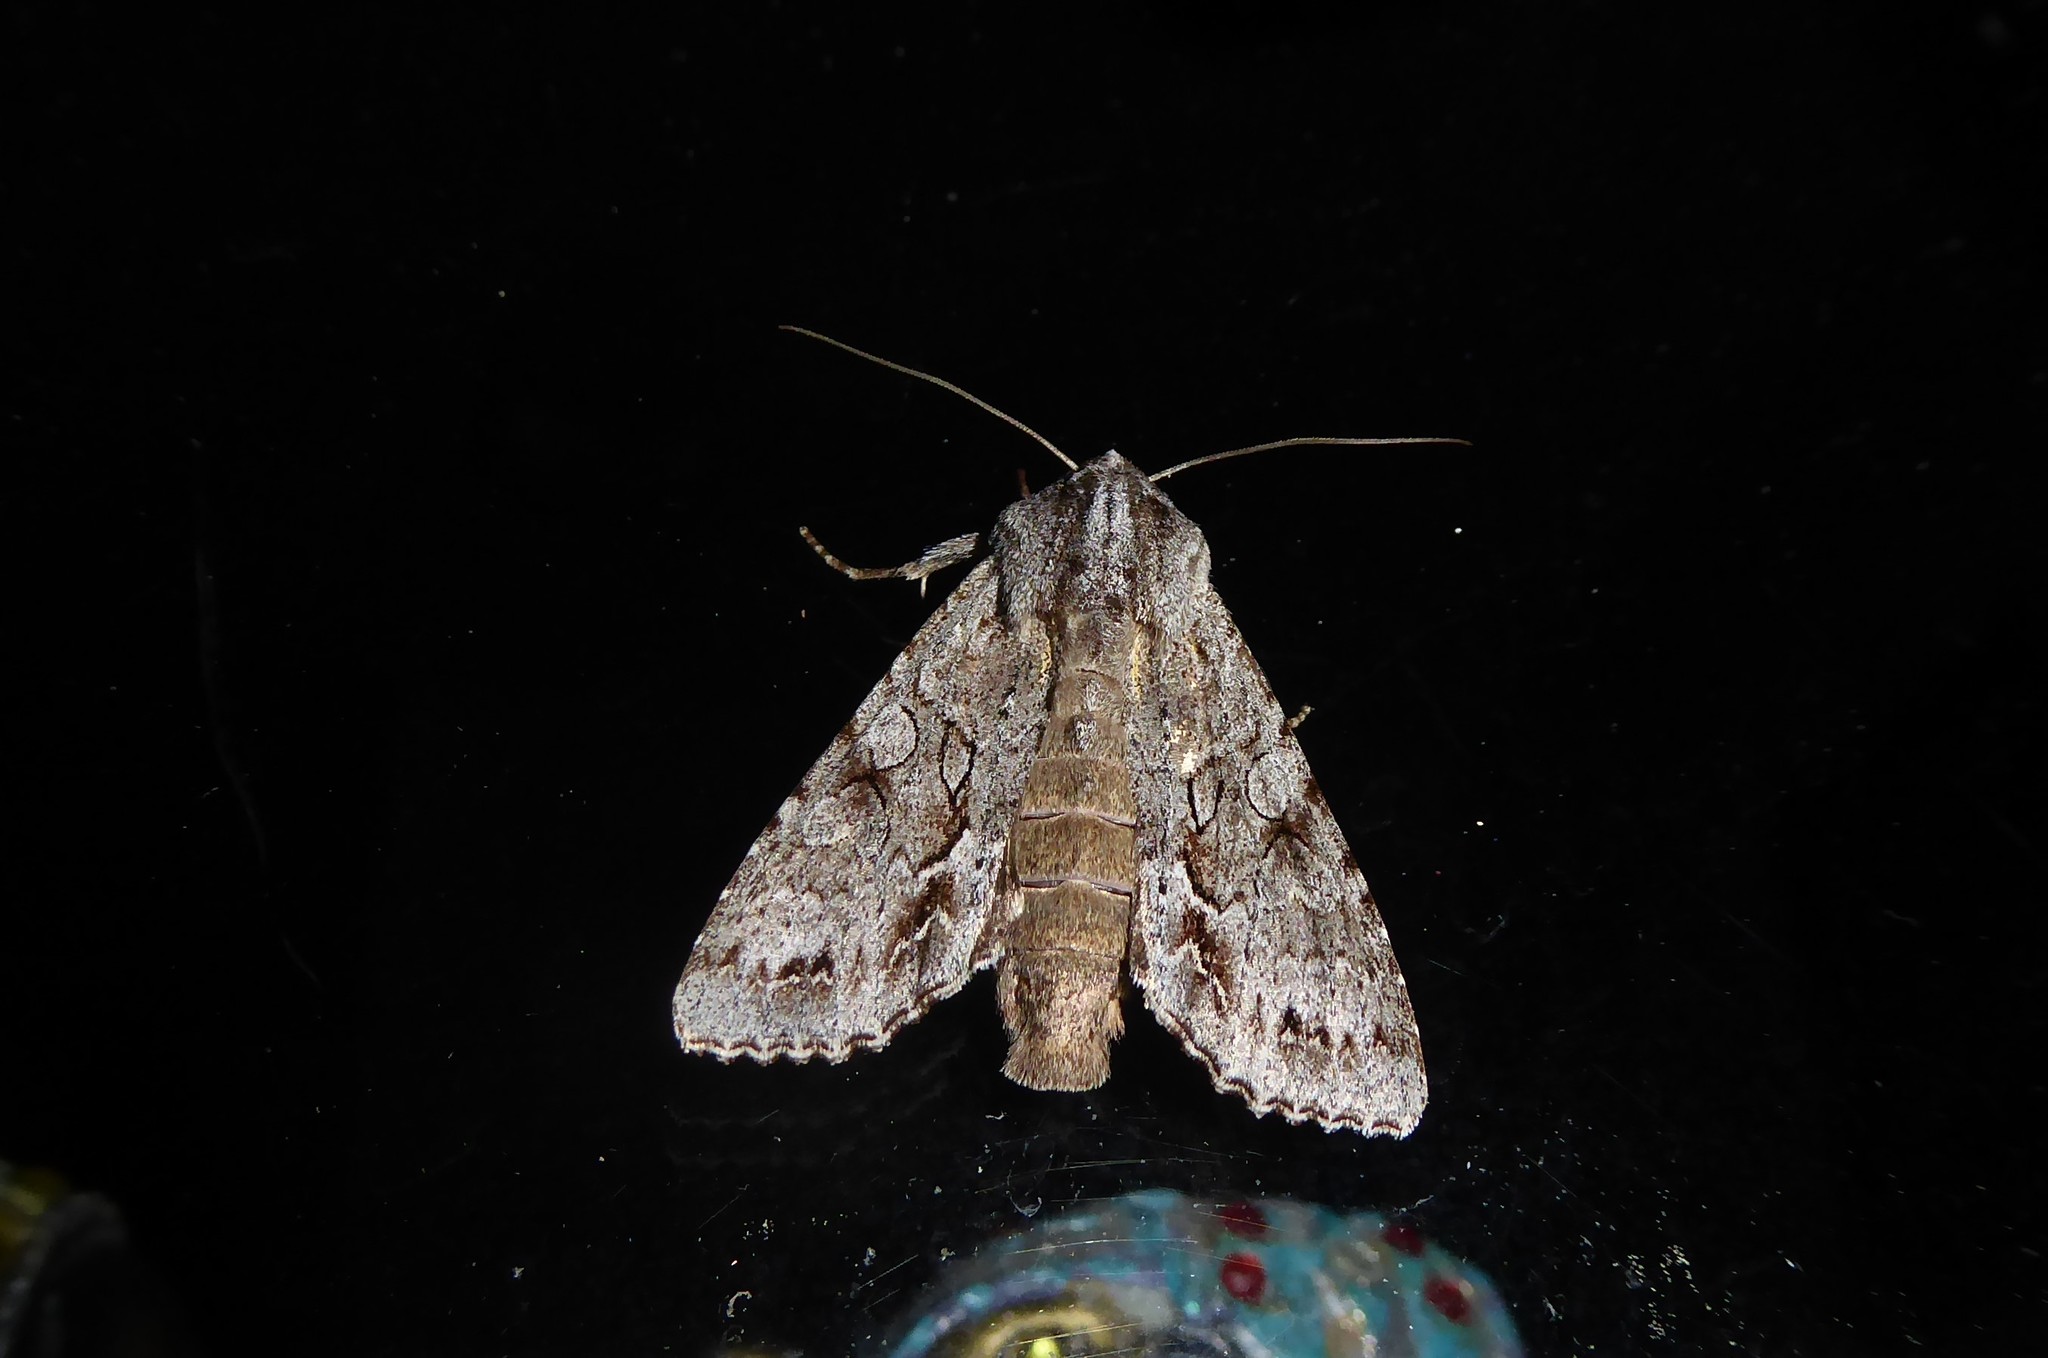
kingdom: Animalia
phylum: Arthropoda
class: Insecta
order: Lepidoptera
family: Noctuidae
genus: Ichneutica
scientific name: Ichneutica
